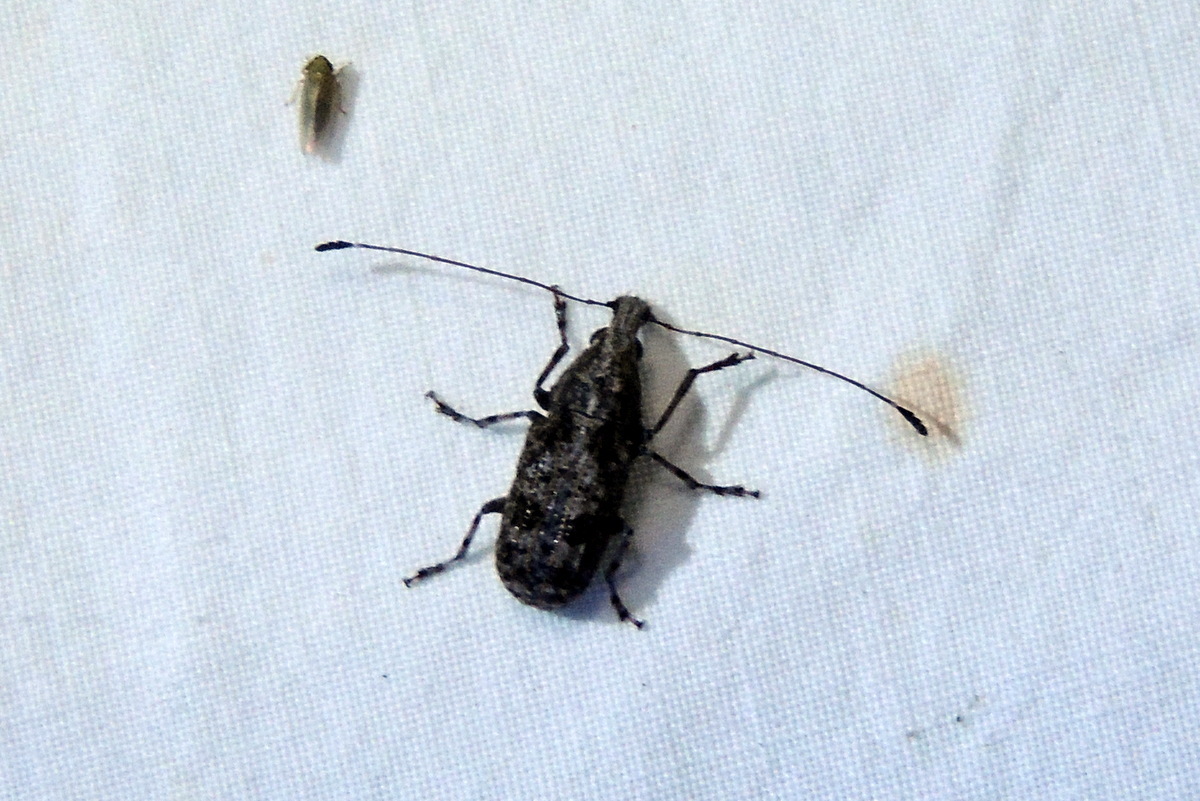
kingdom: Animalia
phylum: Arthropoda
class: Insecta
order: Coleoptera
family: Anthribidae
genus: Meconemus
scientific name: Meconemus infuscatus
